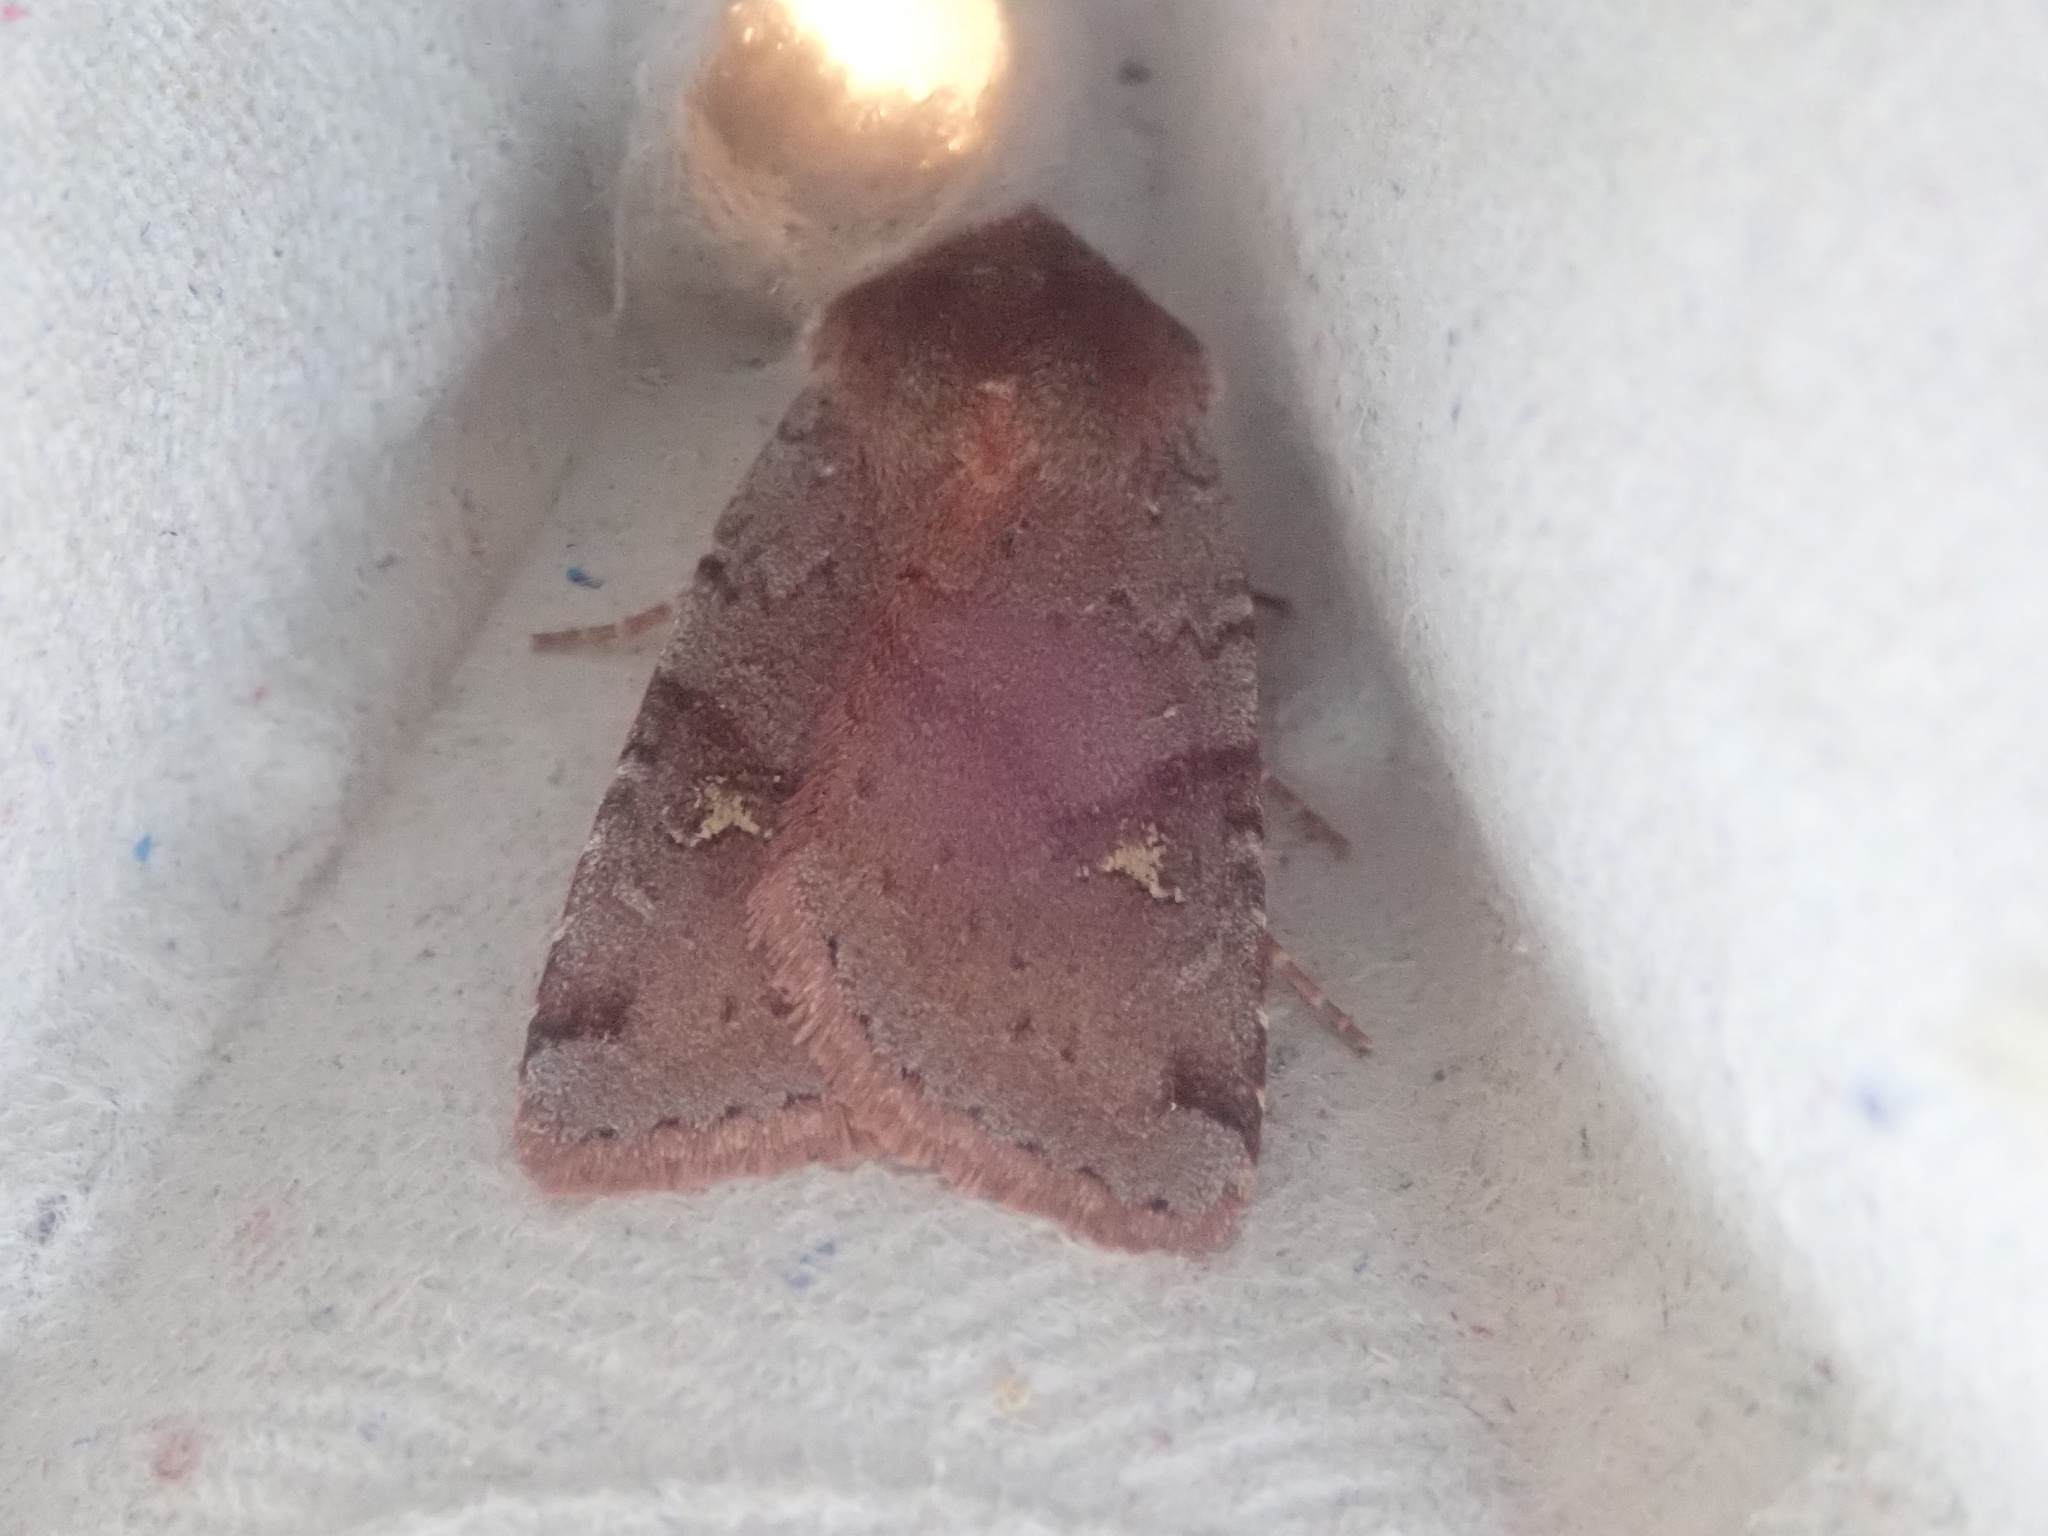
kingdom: Animalia
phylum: Arthropoda
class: Insecta
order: Lepidoptera
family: Noctuidae
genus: Cerastis
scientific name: Cerastis fishii
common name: Fish's dart
